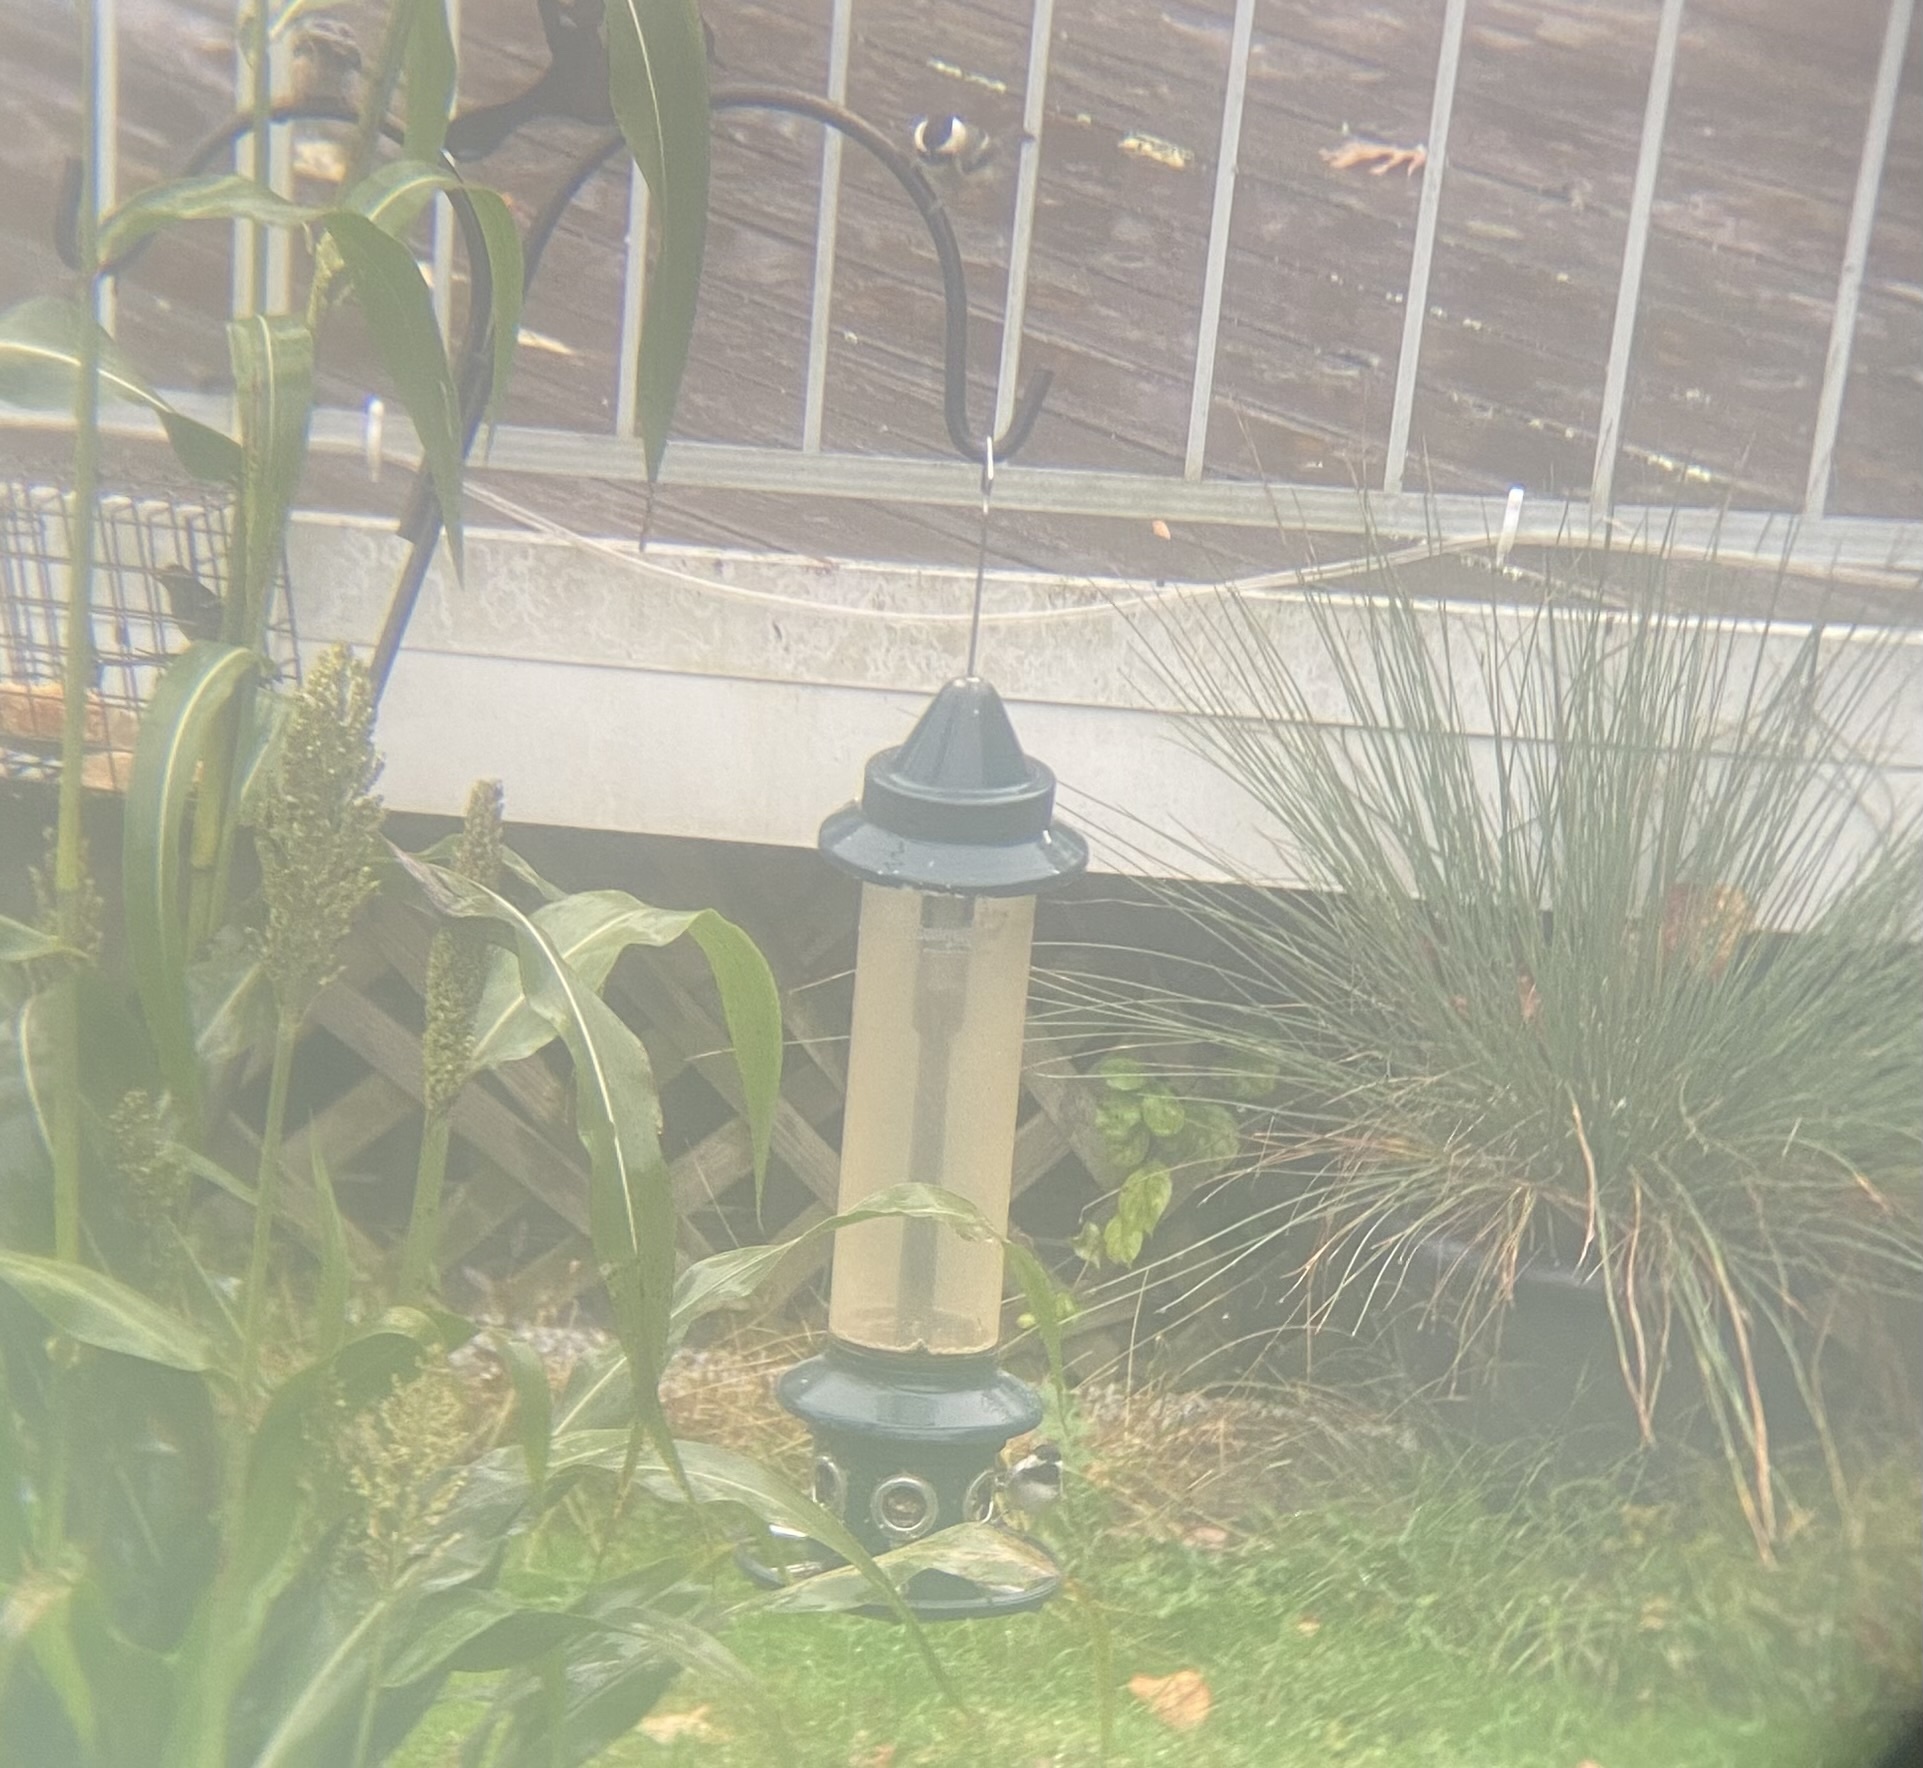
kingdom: Animalia
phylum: Chordata
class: Aves
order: Passeriformes
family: Paridae
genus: Poecile
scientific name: Poecile atricapillus
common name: Black-capped chickadee
